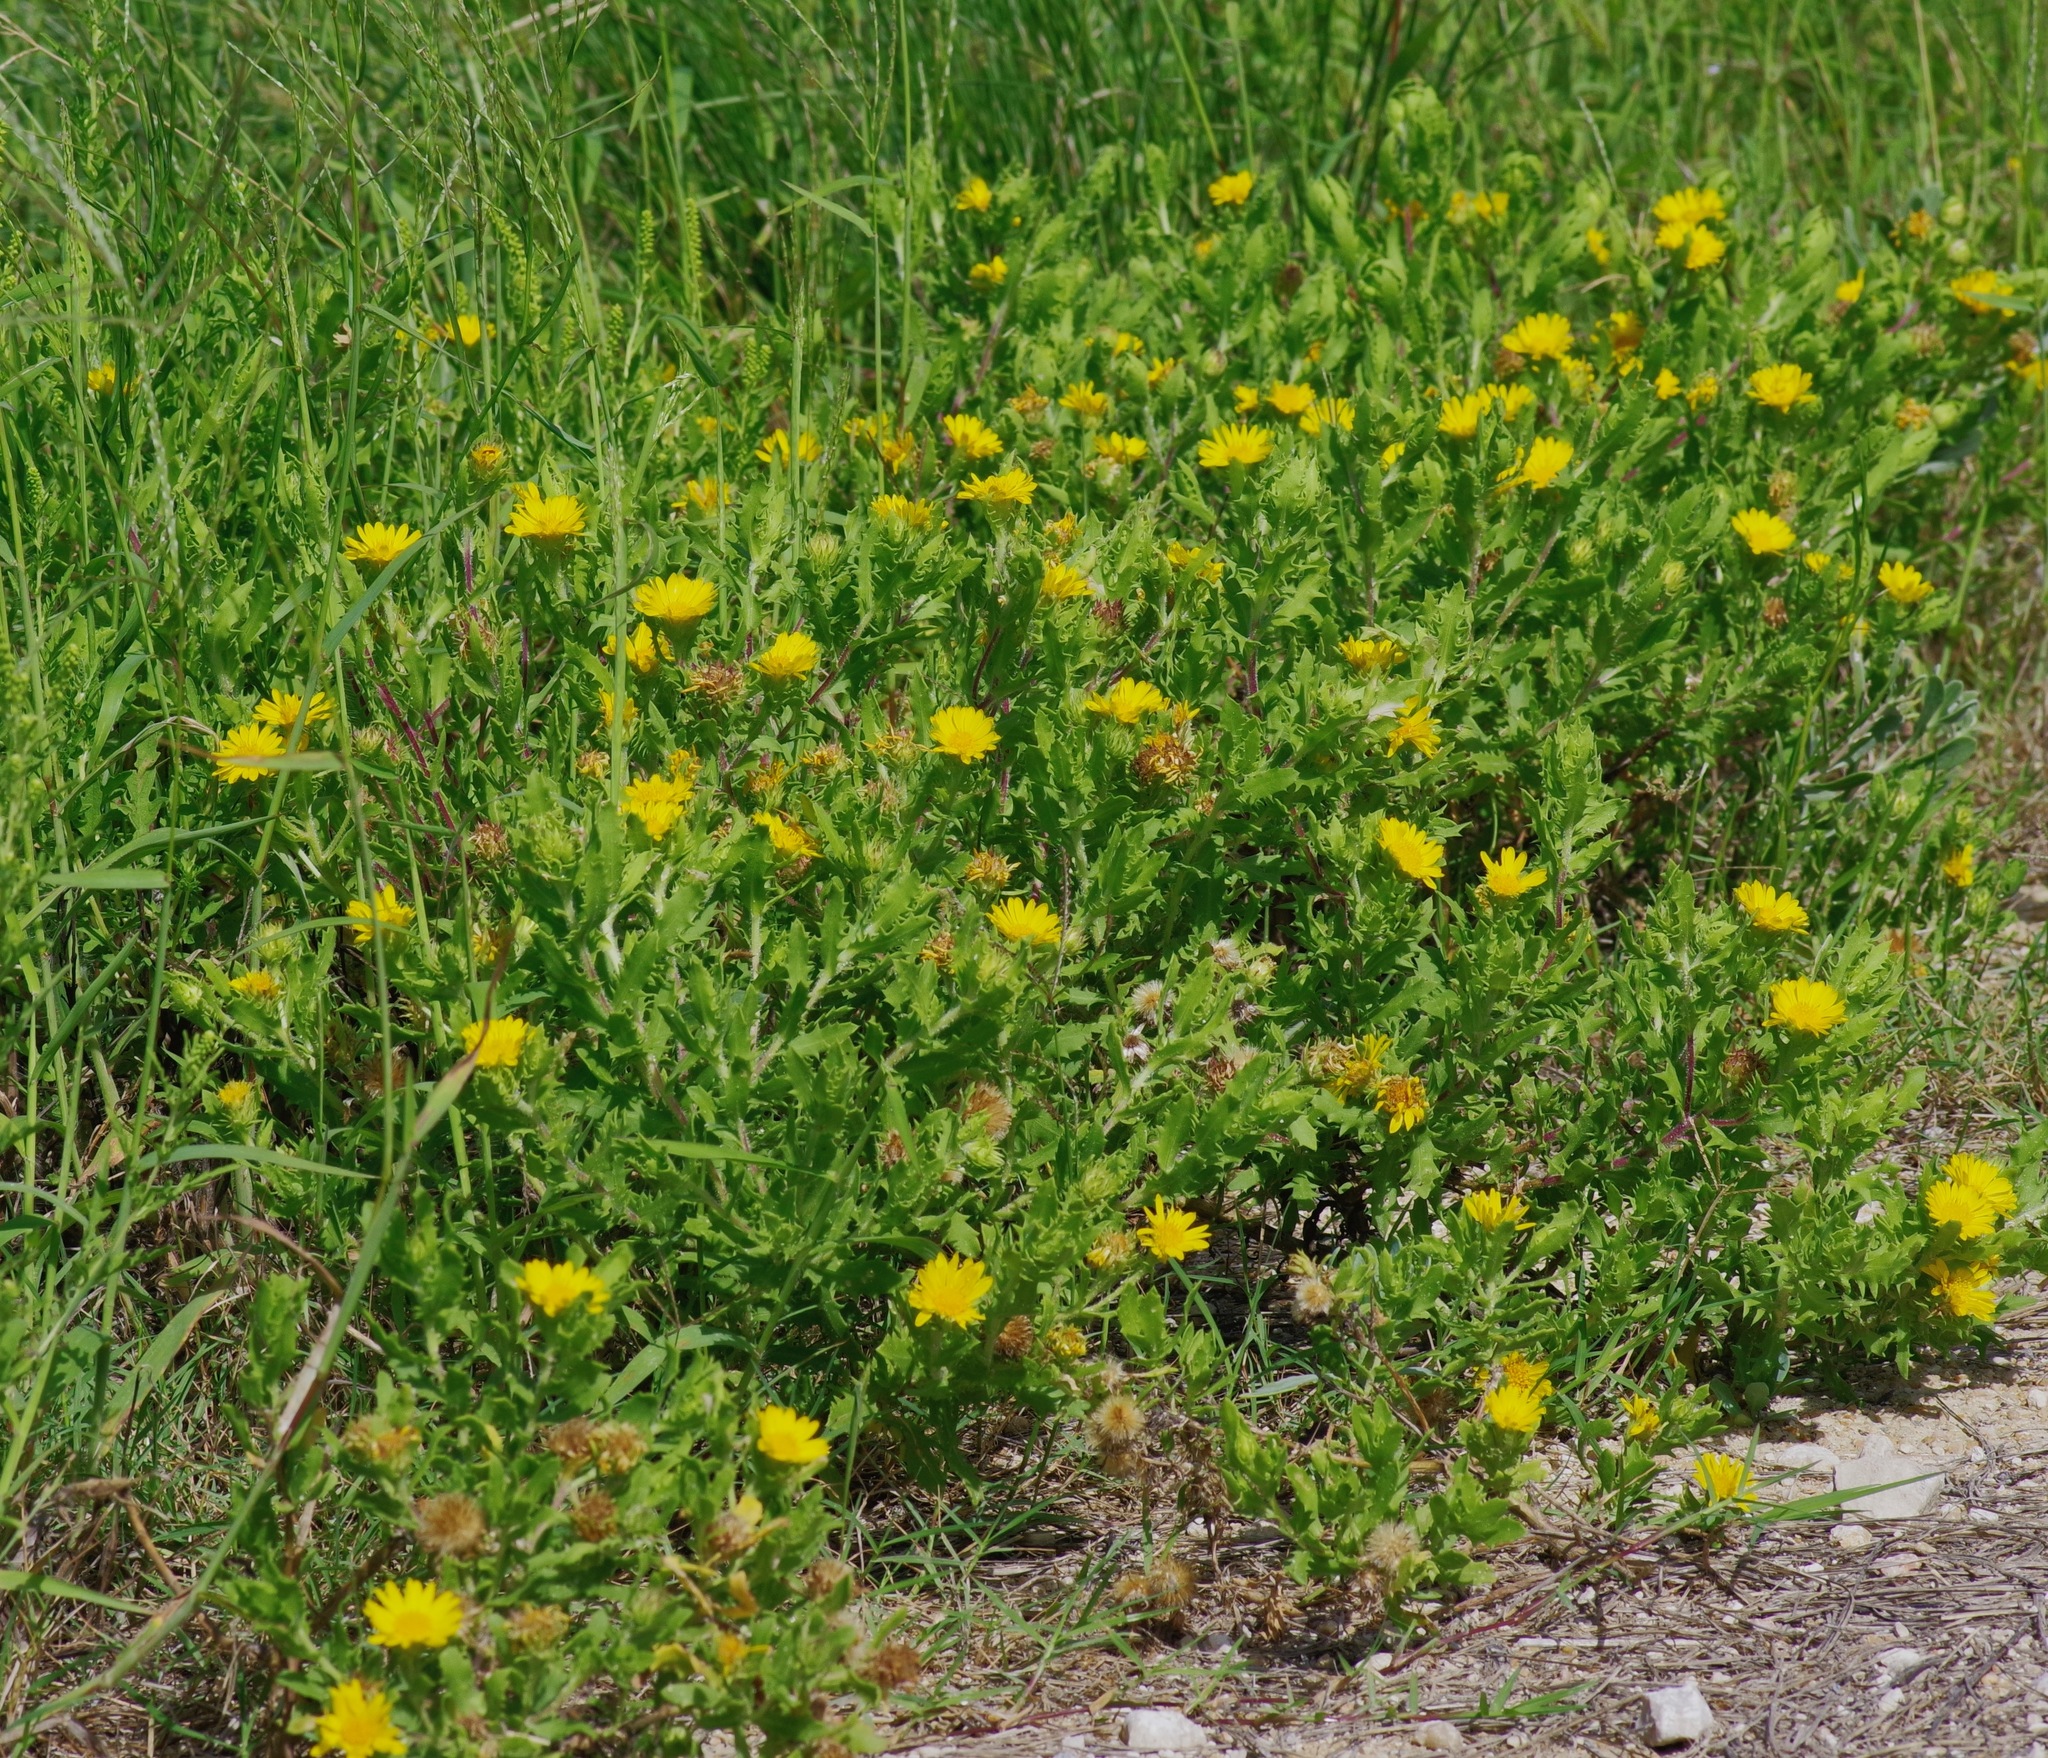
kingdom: Plantae
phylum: Tracheophyta
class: Magnoliopsida
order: Asterales
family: Asteraceae
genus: Rayjacksonia
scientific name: Rayjacksonia phyllocephala
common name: Gulf coast camphor daisy
